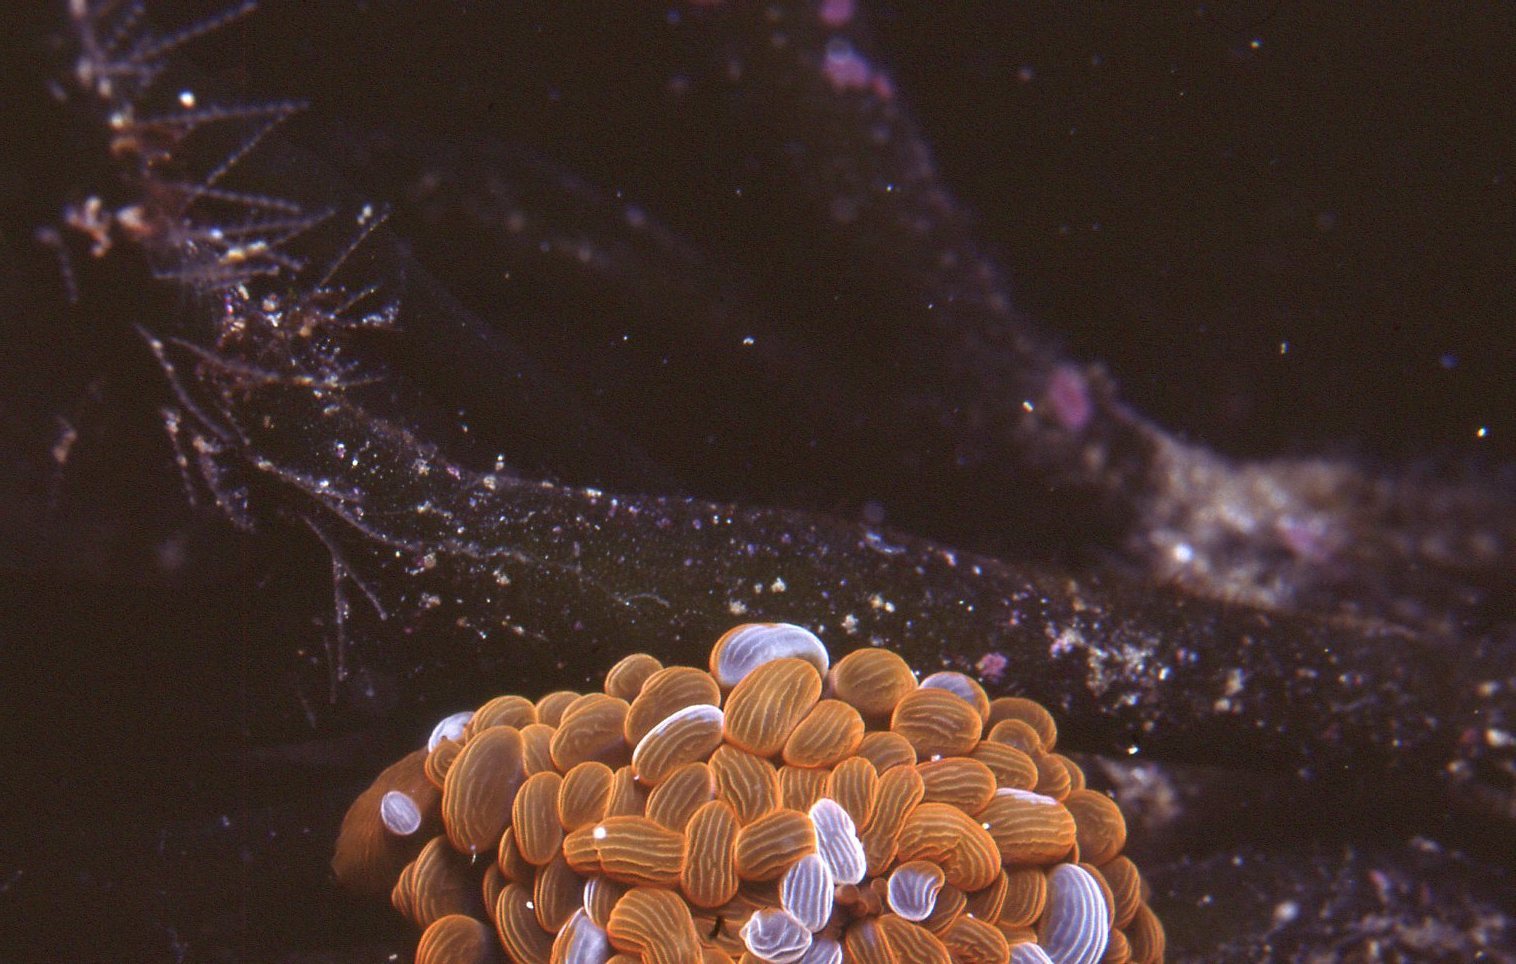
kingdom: Animalia
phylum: Cnidaria
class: Anthozoa
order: Actiniaria
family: Actiniidae
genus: Phlyctenactis
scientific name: Phlyctenactis tuberculosa
